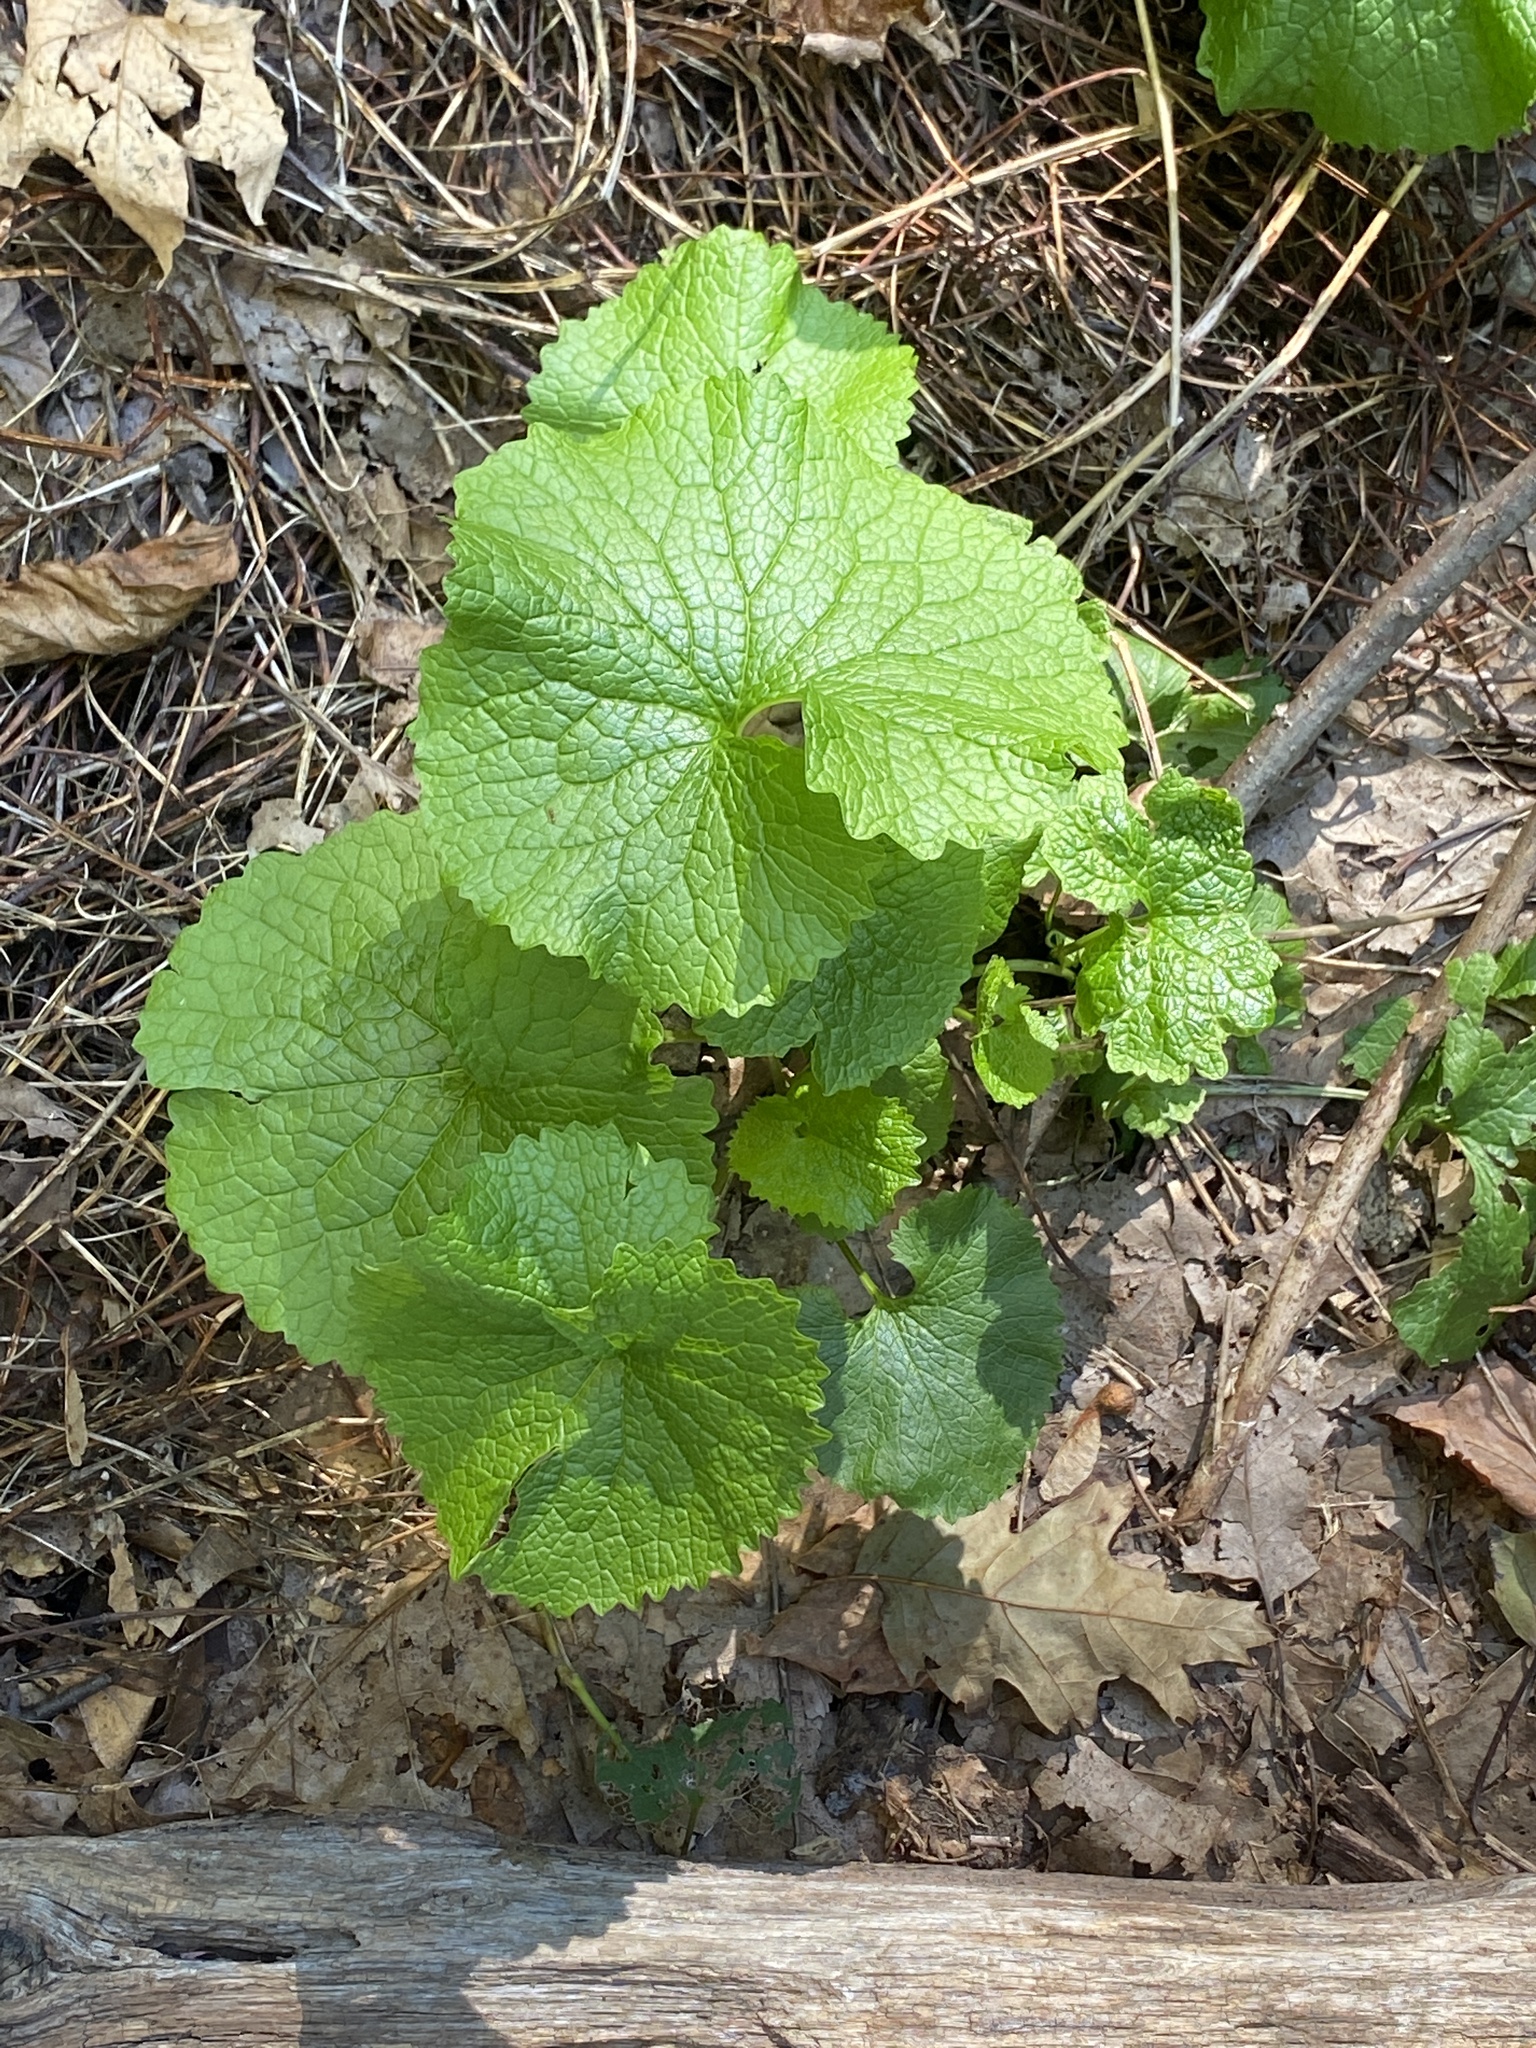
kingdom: Plantae
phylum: Tracheophyta
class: Magnoliopsida
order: Brassicales
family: Brassicaceae
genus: Alliaria
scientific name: Alliaria petiolata
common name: Garlic mustard
